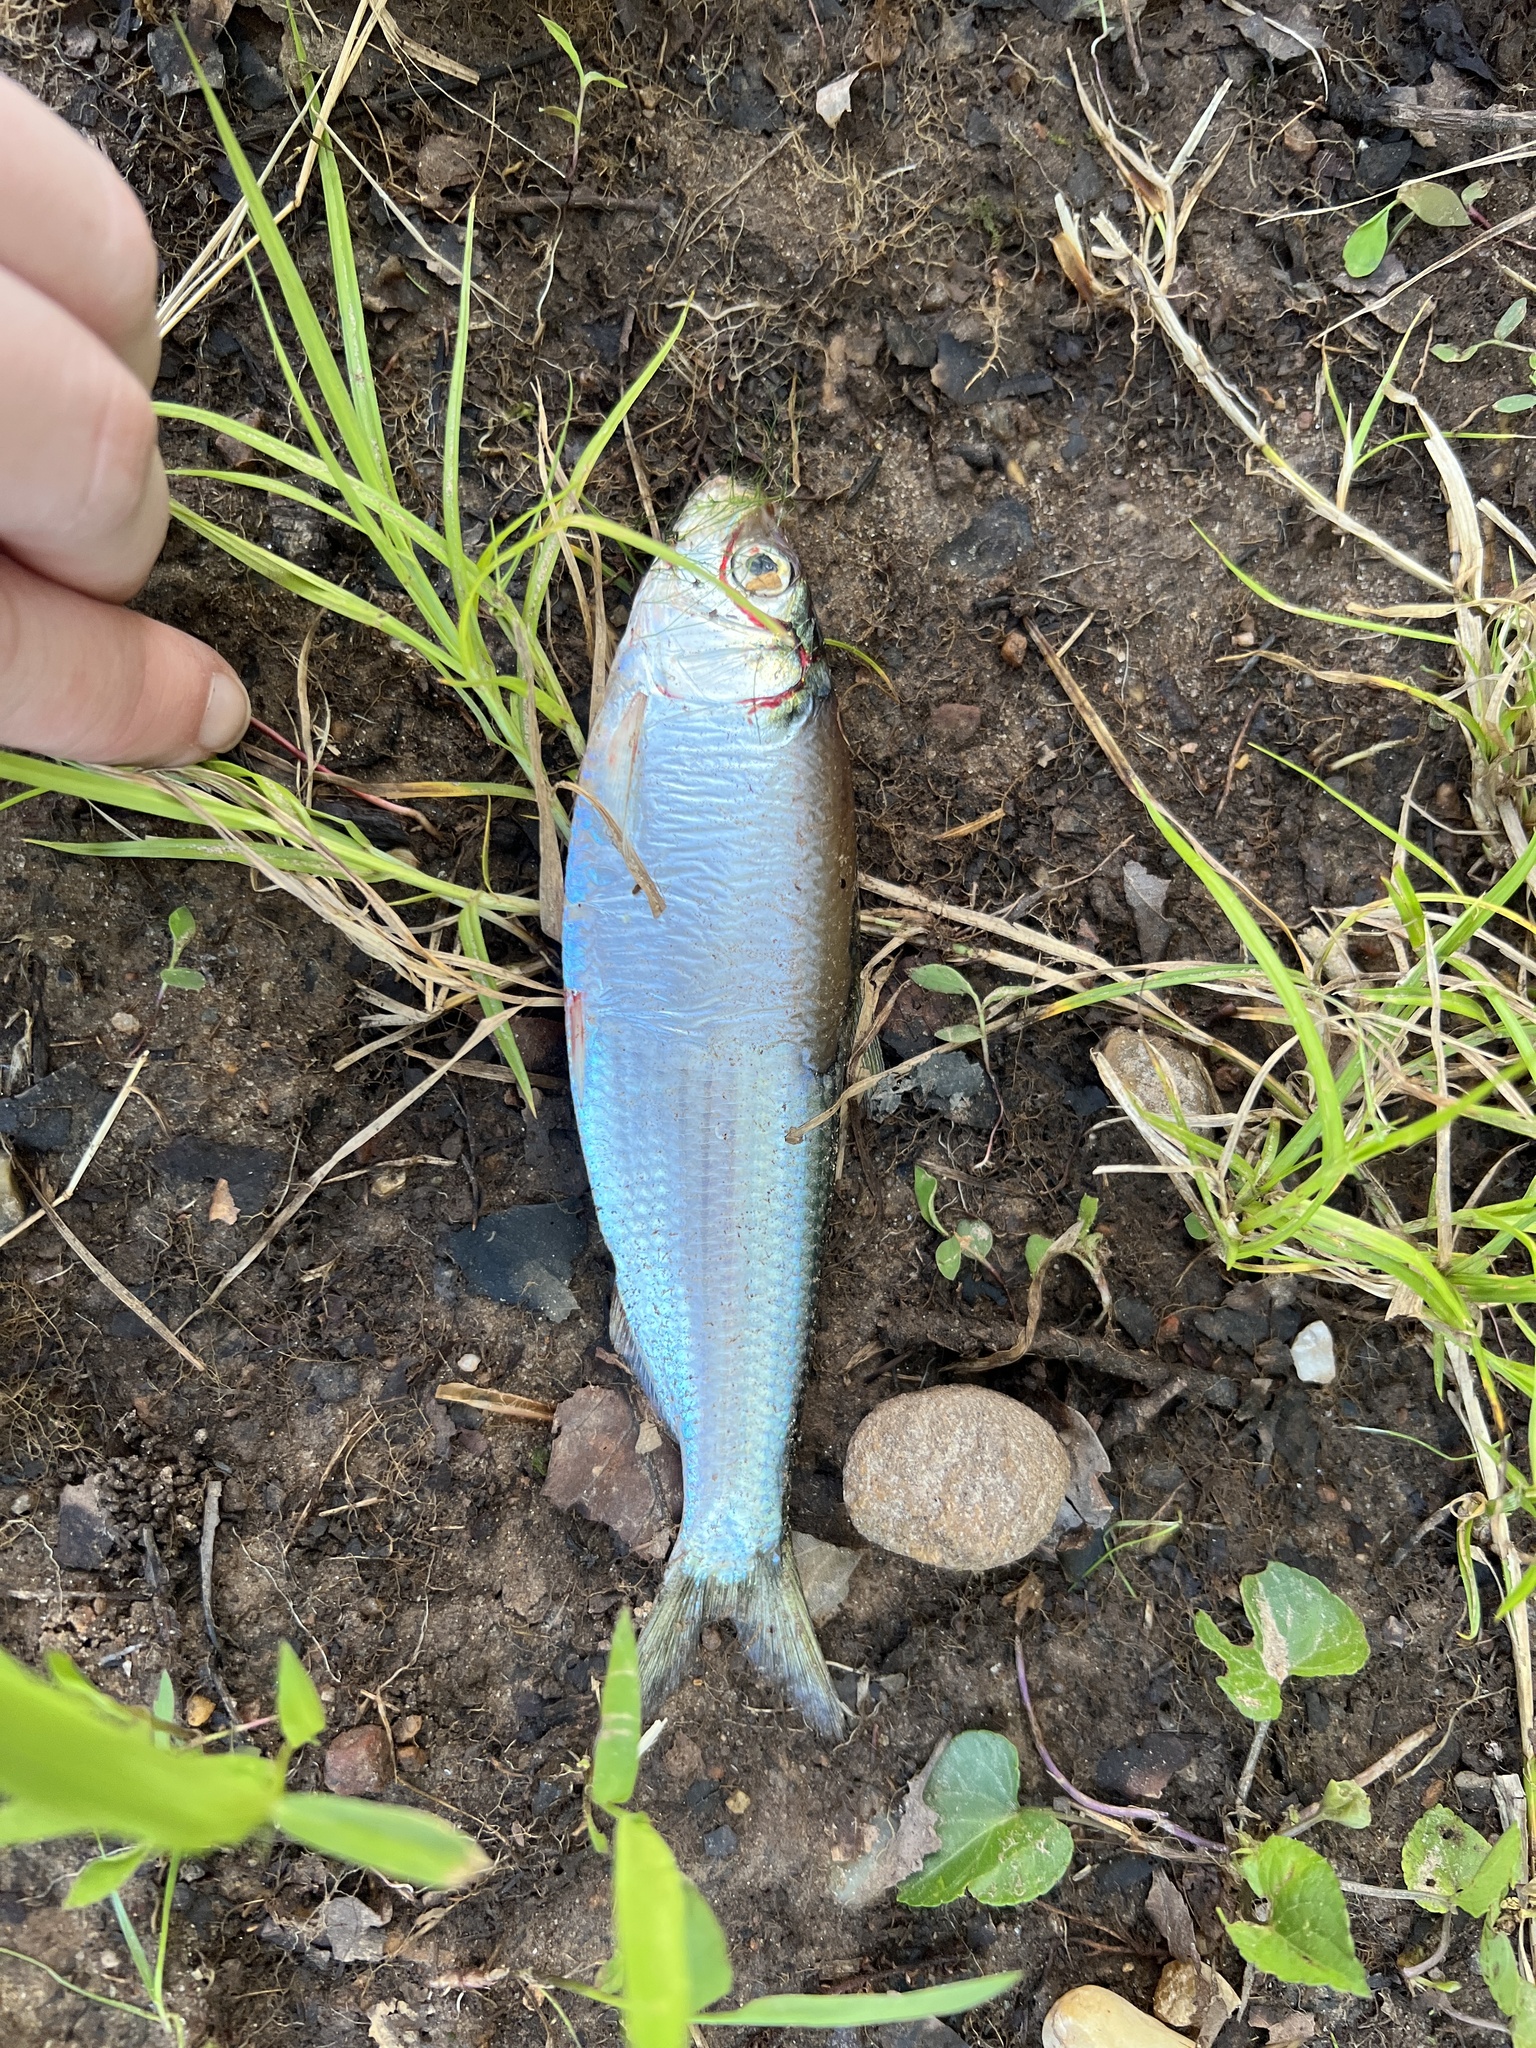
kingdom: Animalia
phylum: Chordata
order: Clupeiformes
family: Clupeidae
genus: Alosa
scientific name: Alosa chrysochloris
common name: Skipjack shad
